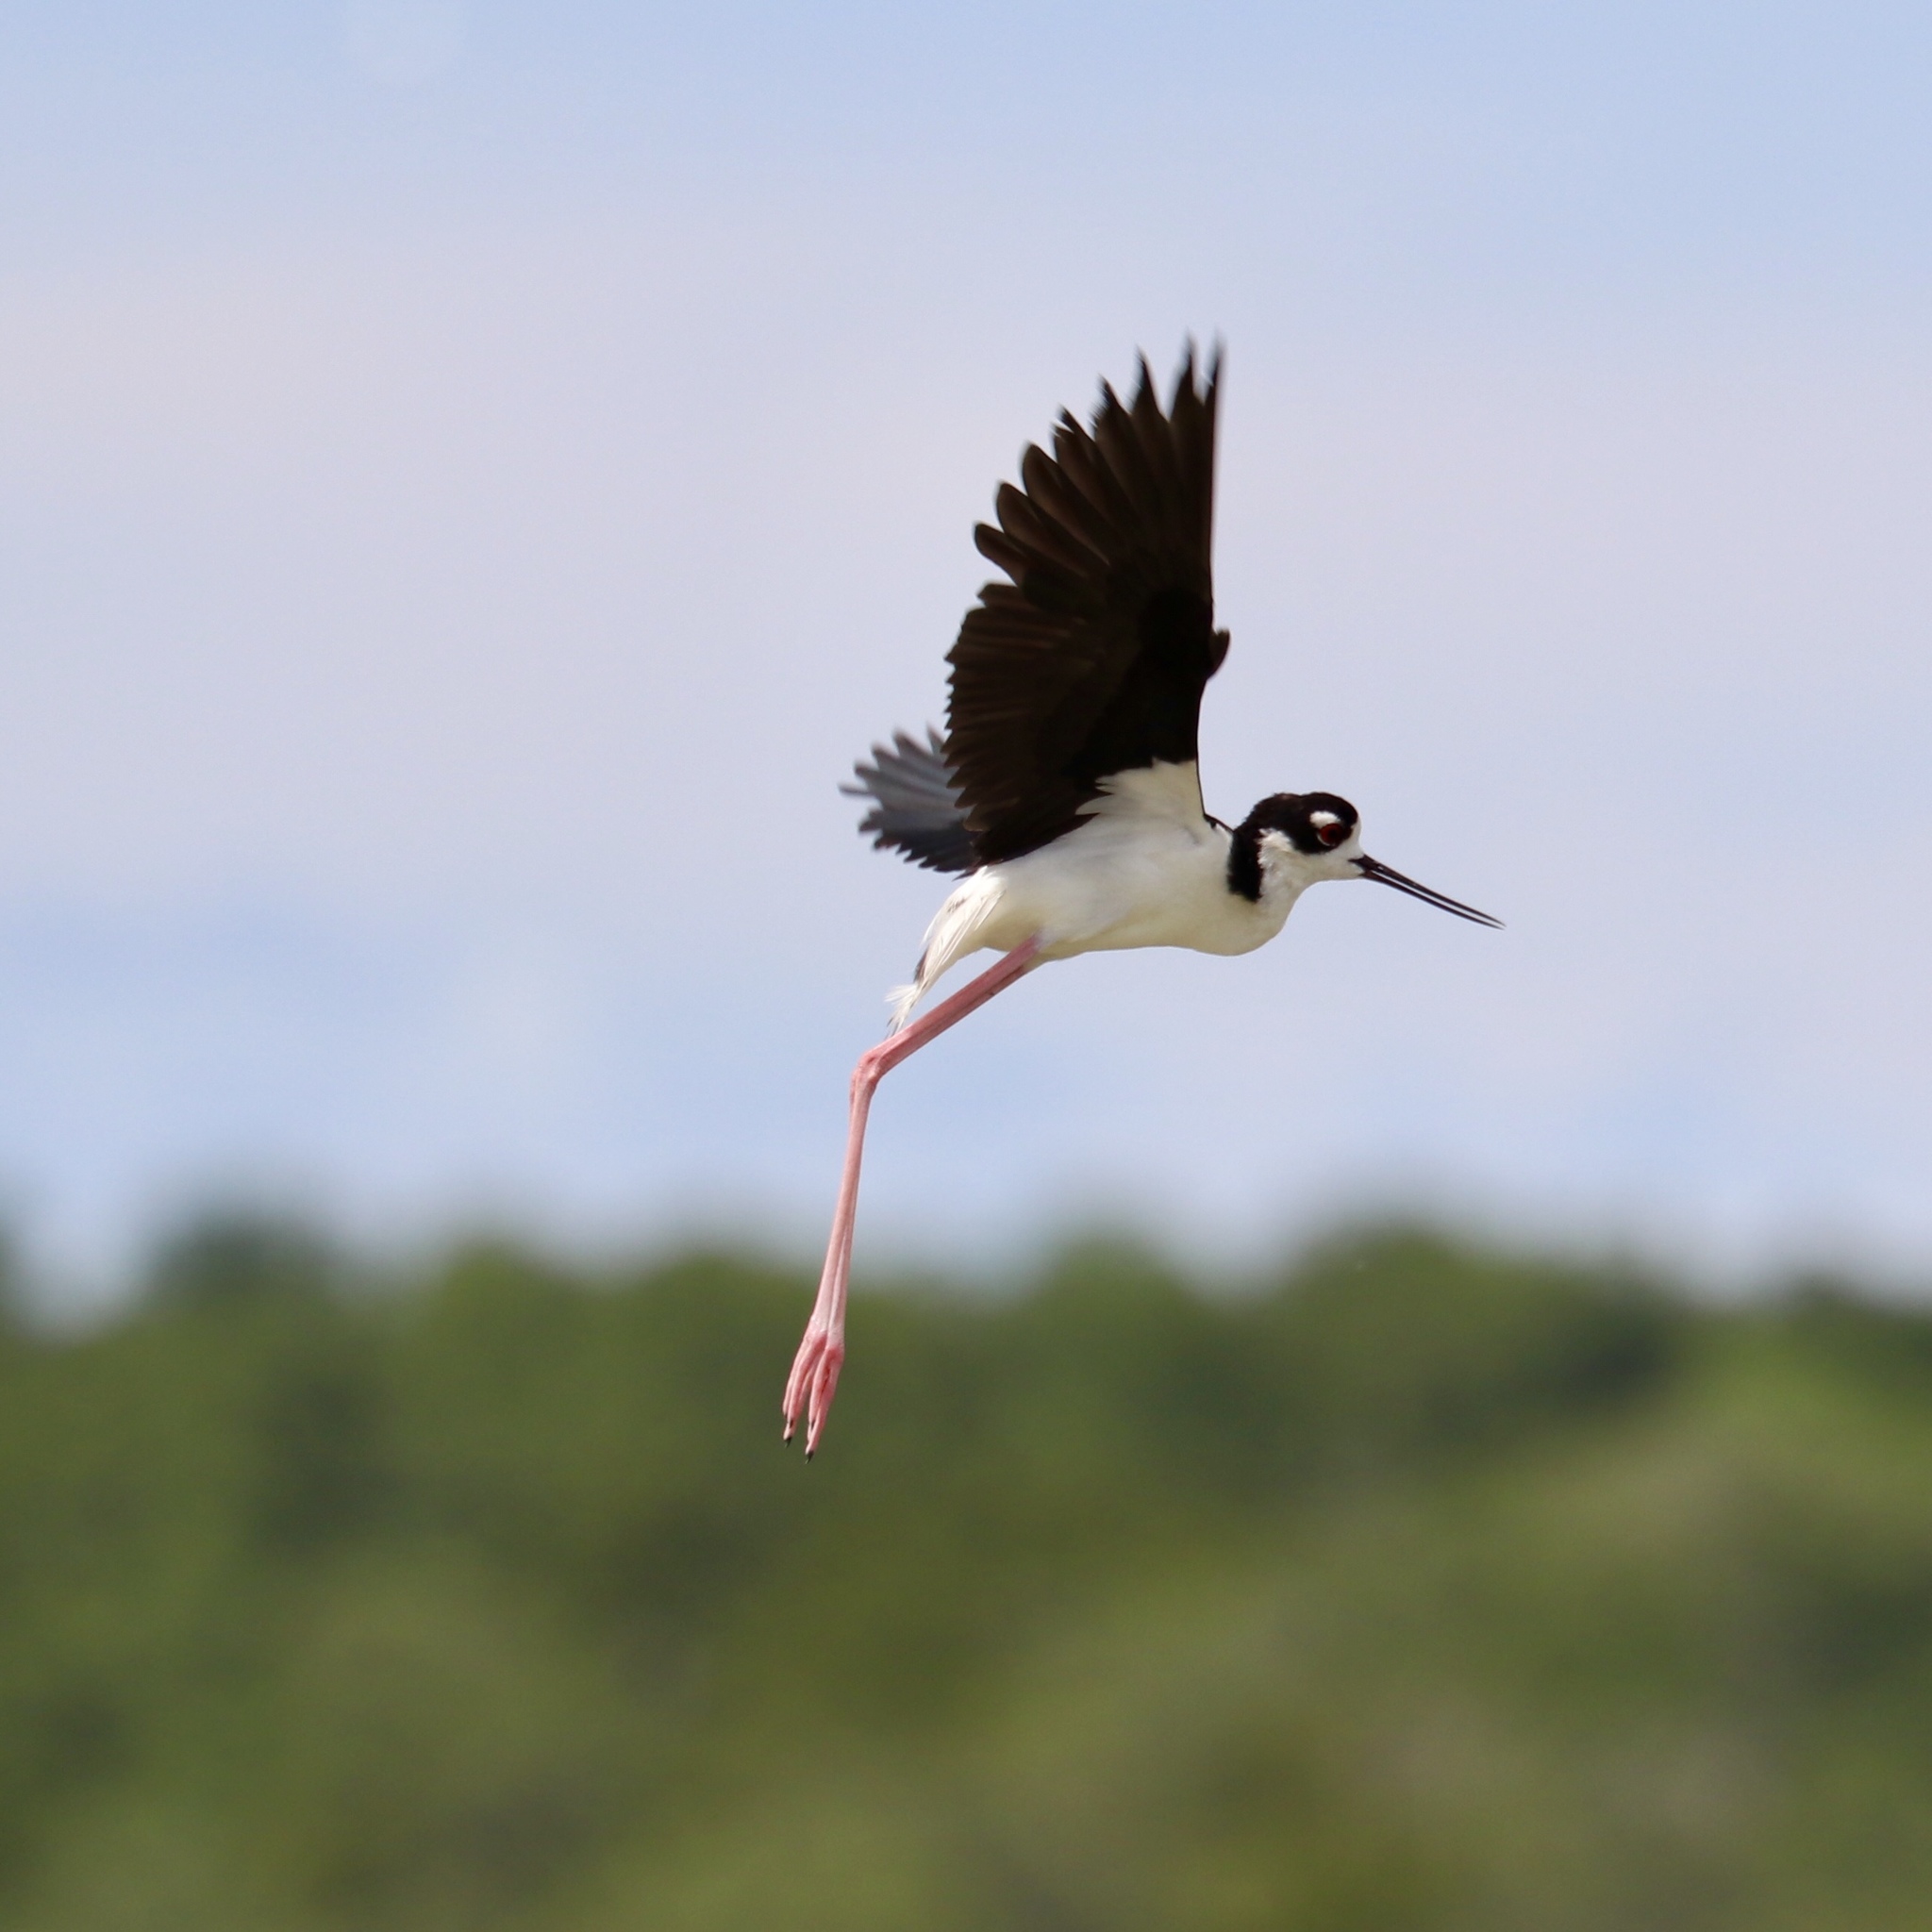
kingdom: Animalia
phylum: Chordata
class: Aves
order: Charadriiformes
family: Recurvirostridae
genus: Himantopus
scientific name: Himantopus mexicanus
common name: Black-necked stilt
